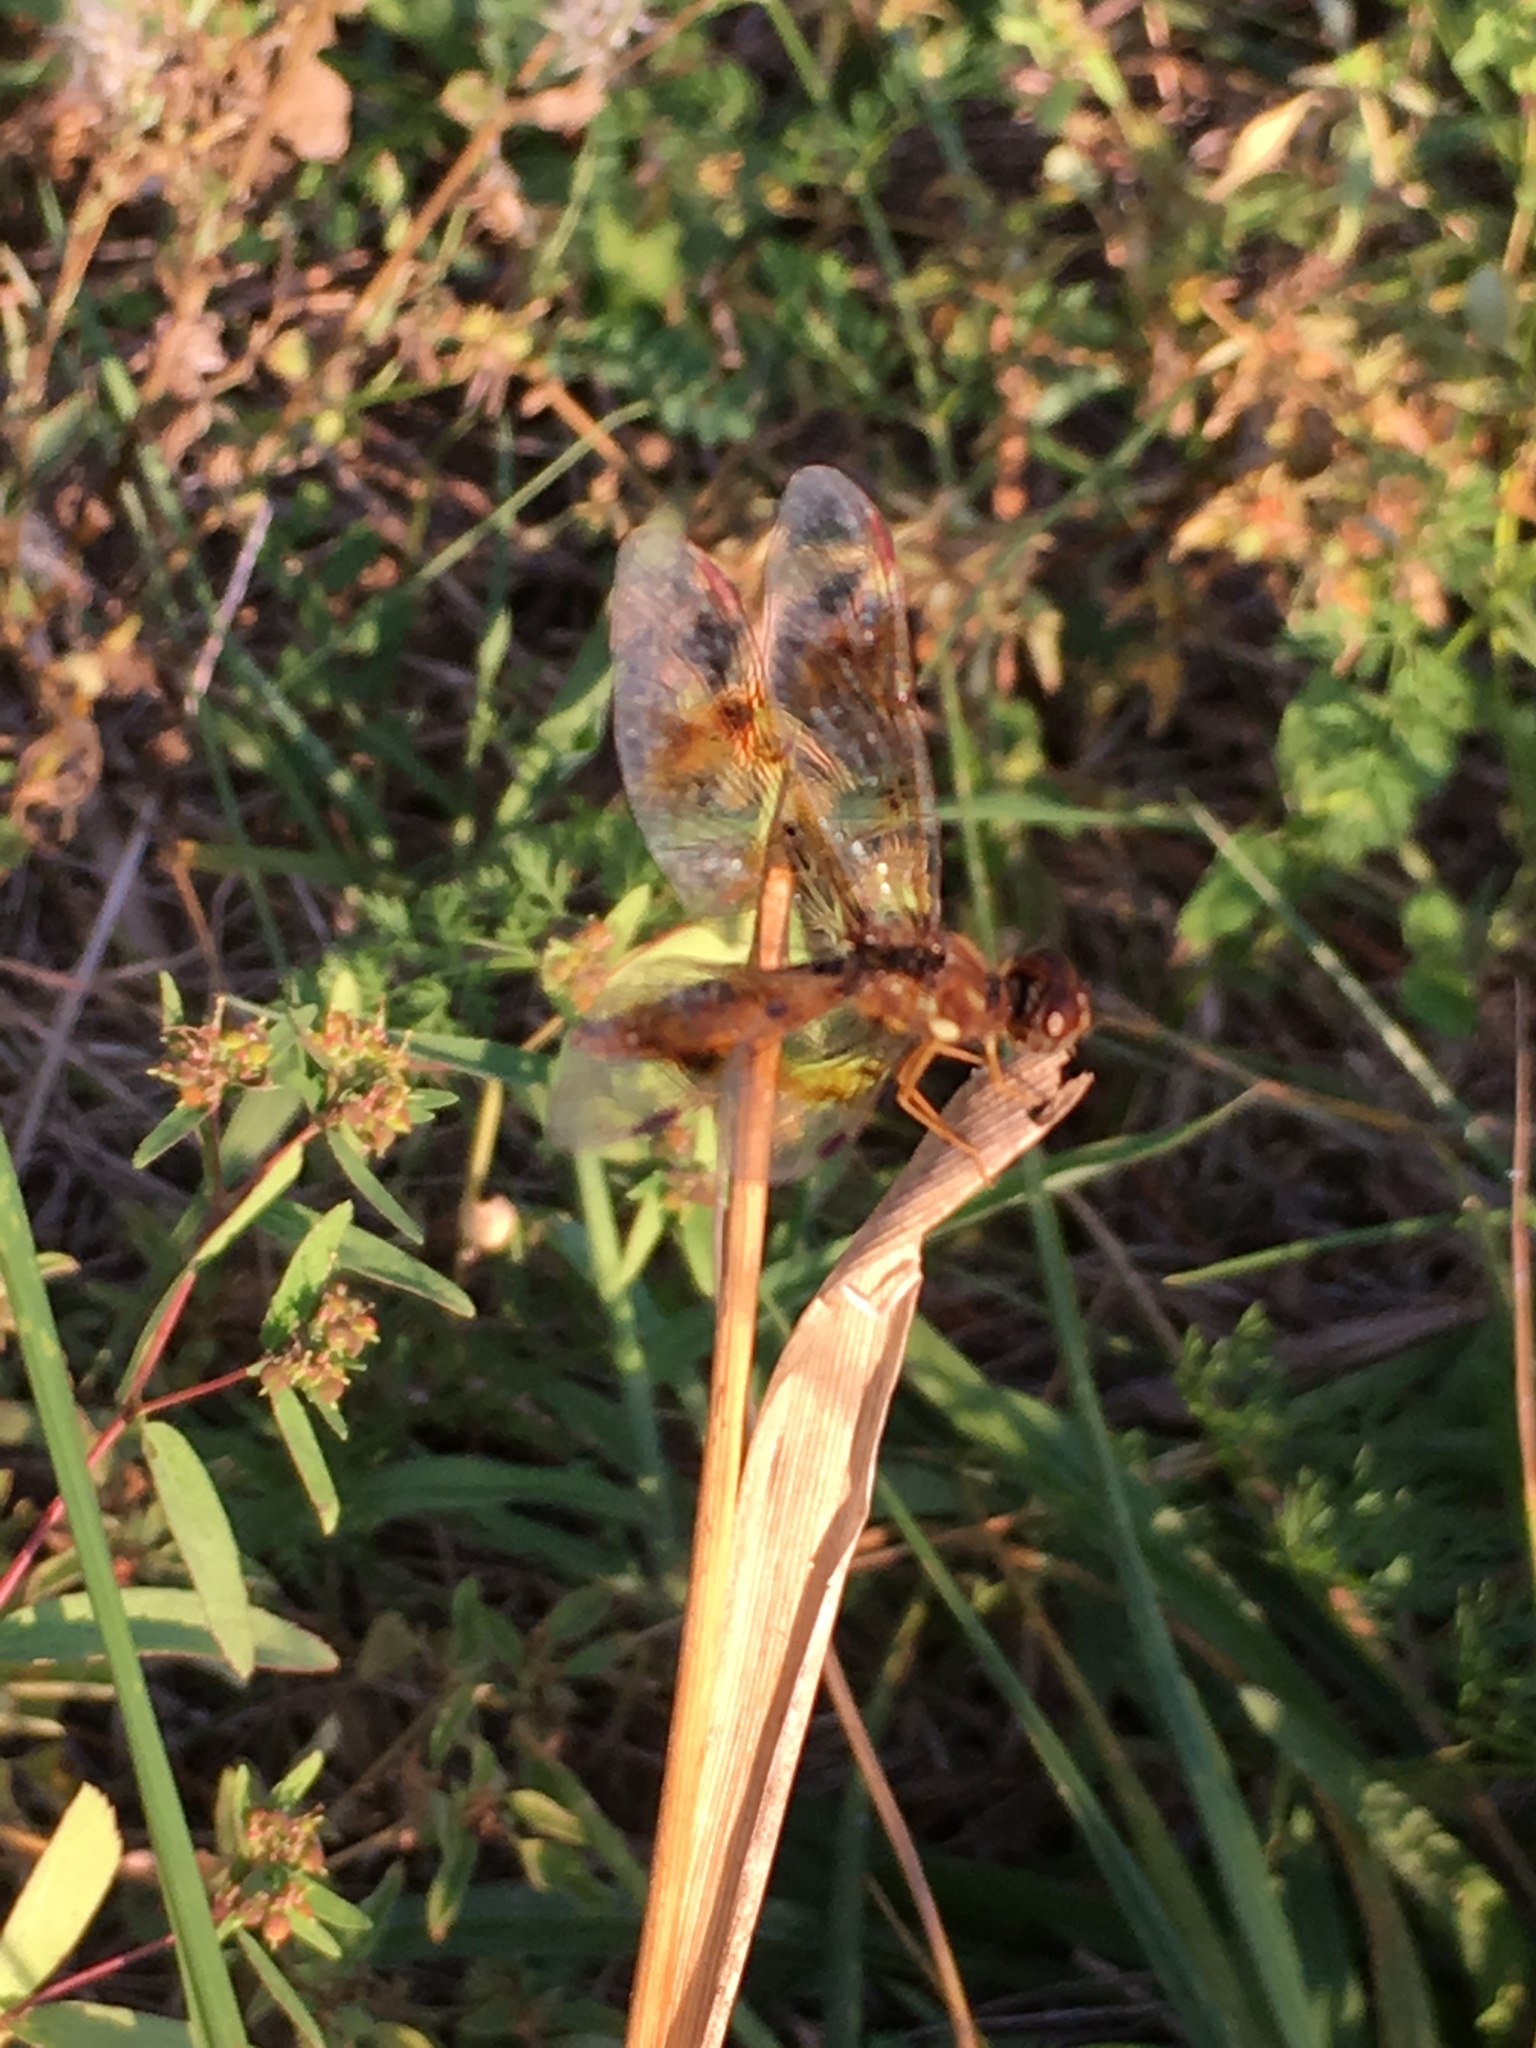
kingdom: Animalia
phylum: Arthropoda
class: Insecta
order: Odonata
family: Libellulidae
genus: Perithemis
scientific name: Perithemis tenera
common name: Eastern amberwing
